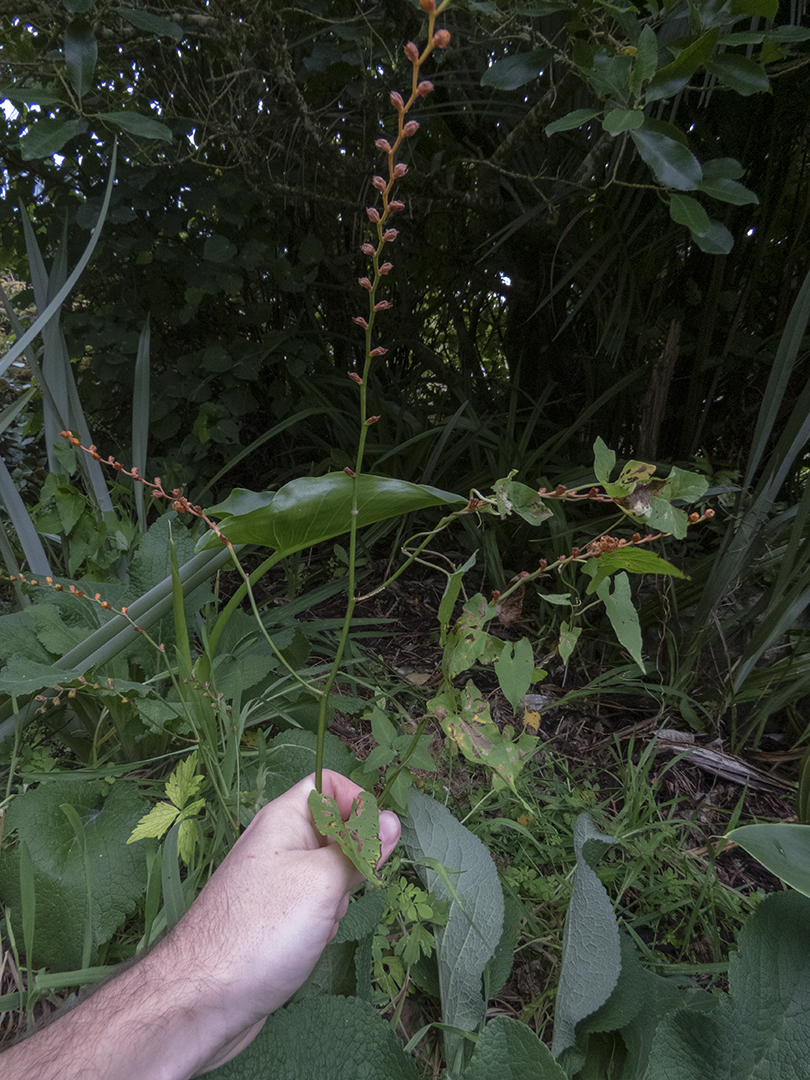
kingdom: Plantae
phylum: Tracheophyta
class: Liliopsida
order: Asparagales
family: Iridaceae
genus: Crocosmia
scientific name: Crocosmia crocosmiiflora
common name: Montbretia
